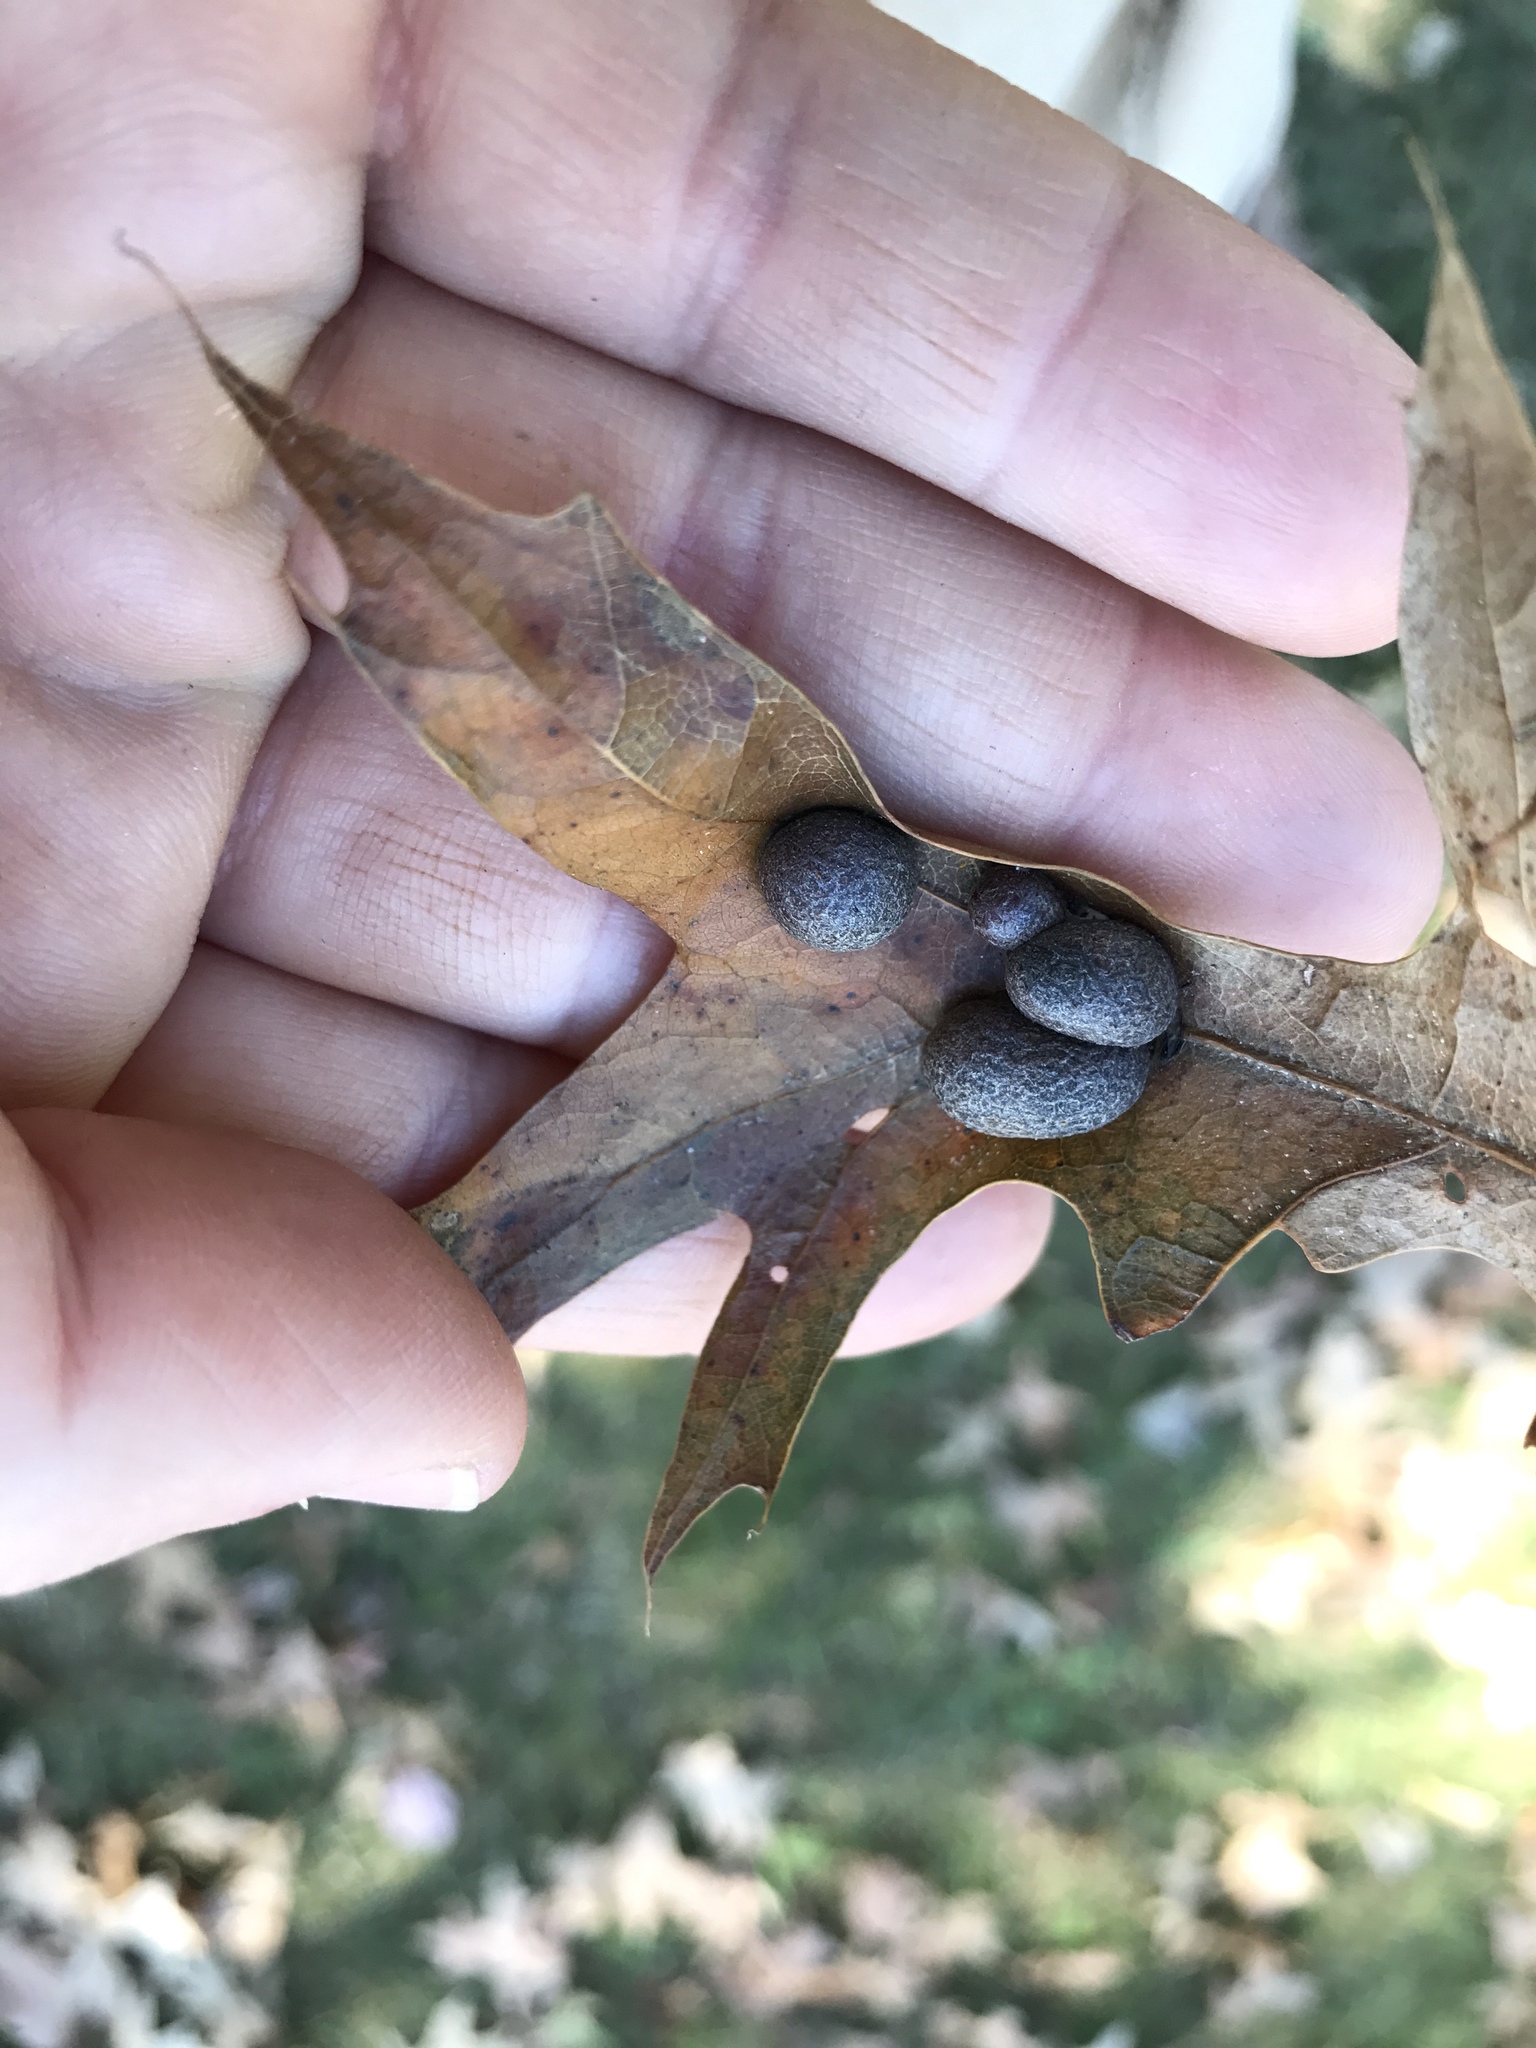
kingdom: Animalia
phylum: Arthropoda
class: Insecta
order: Diptera
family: Cecidomyiidae
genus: Polystepha
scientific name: Polystepha pilulae
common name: Oak leaf gall midge
